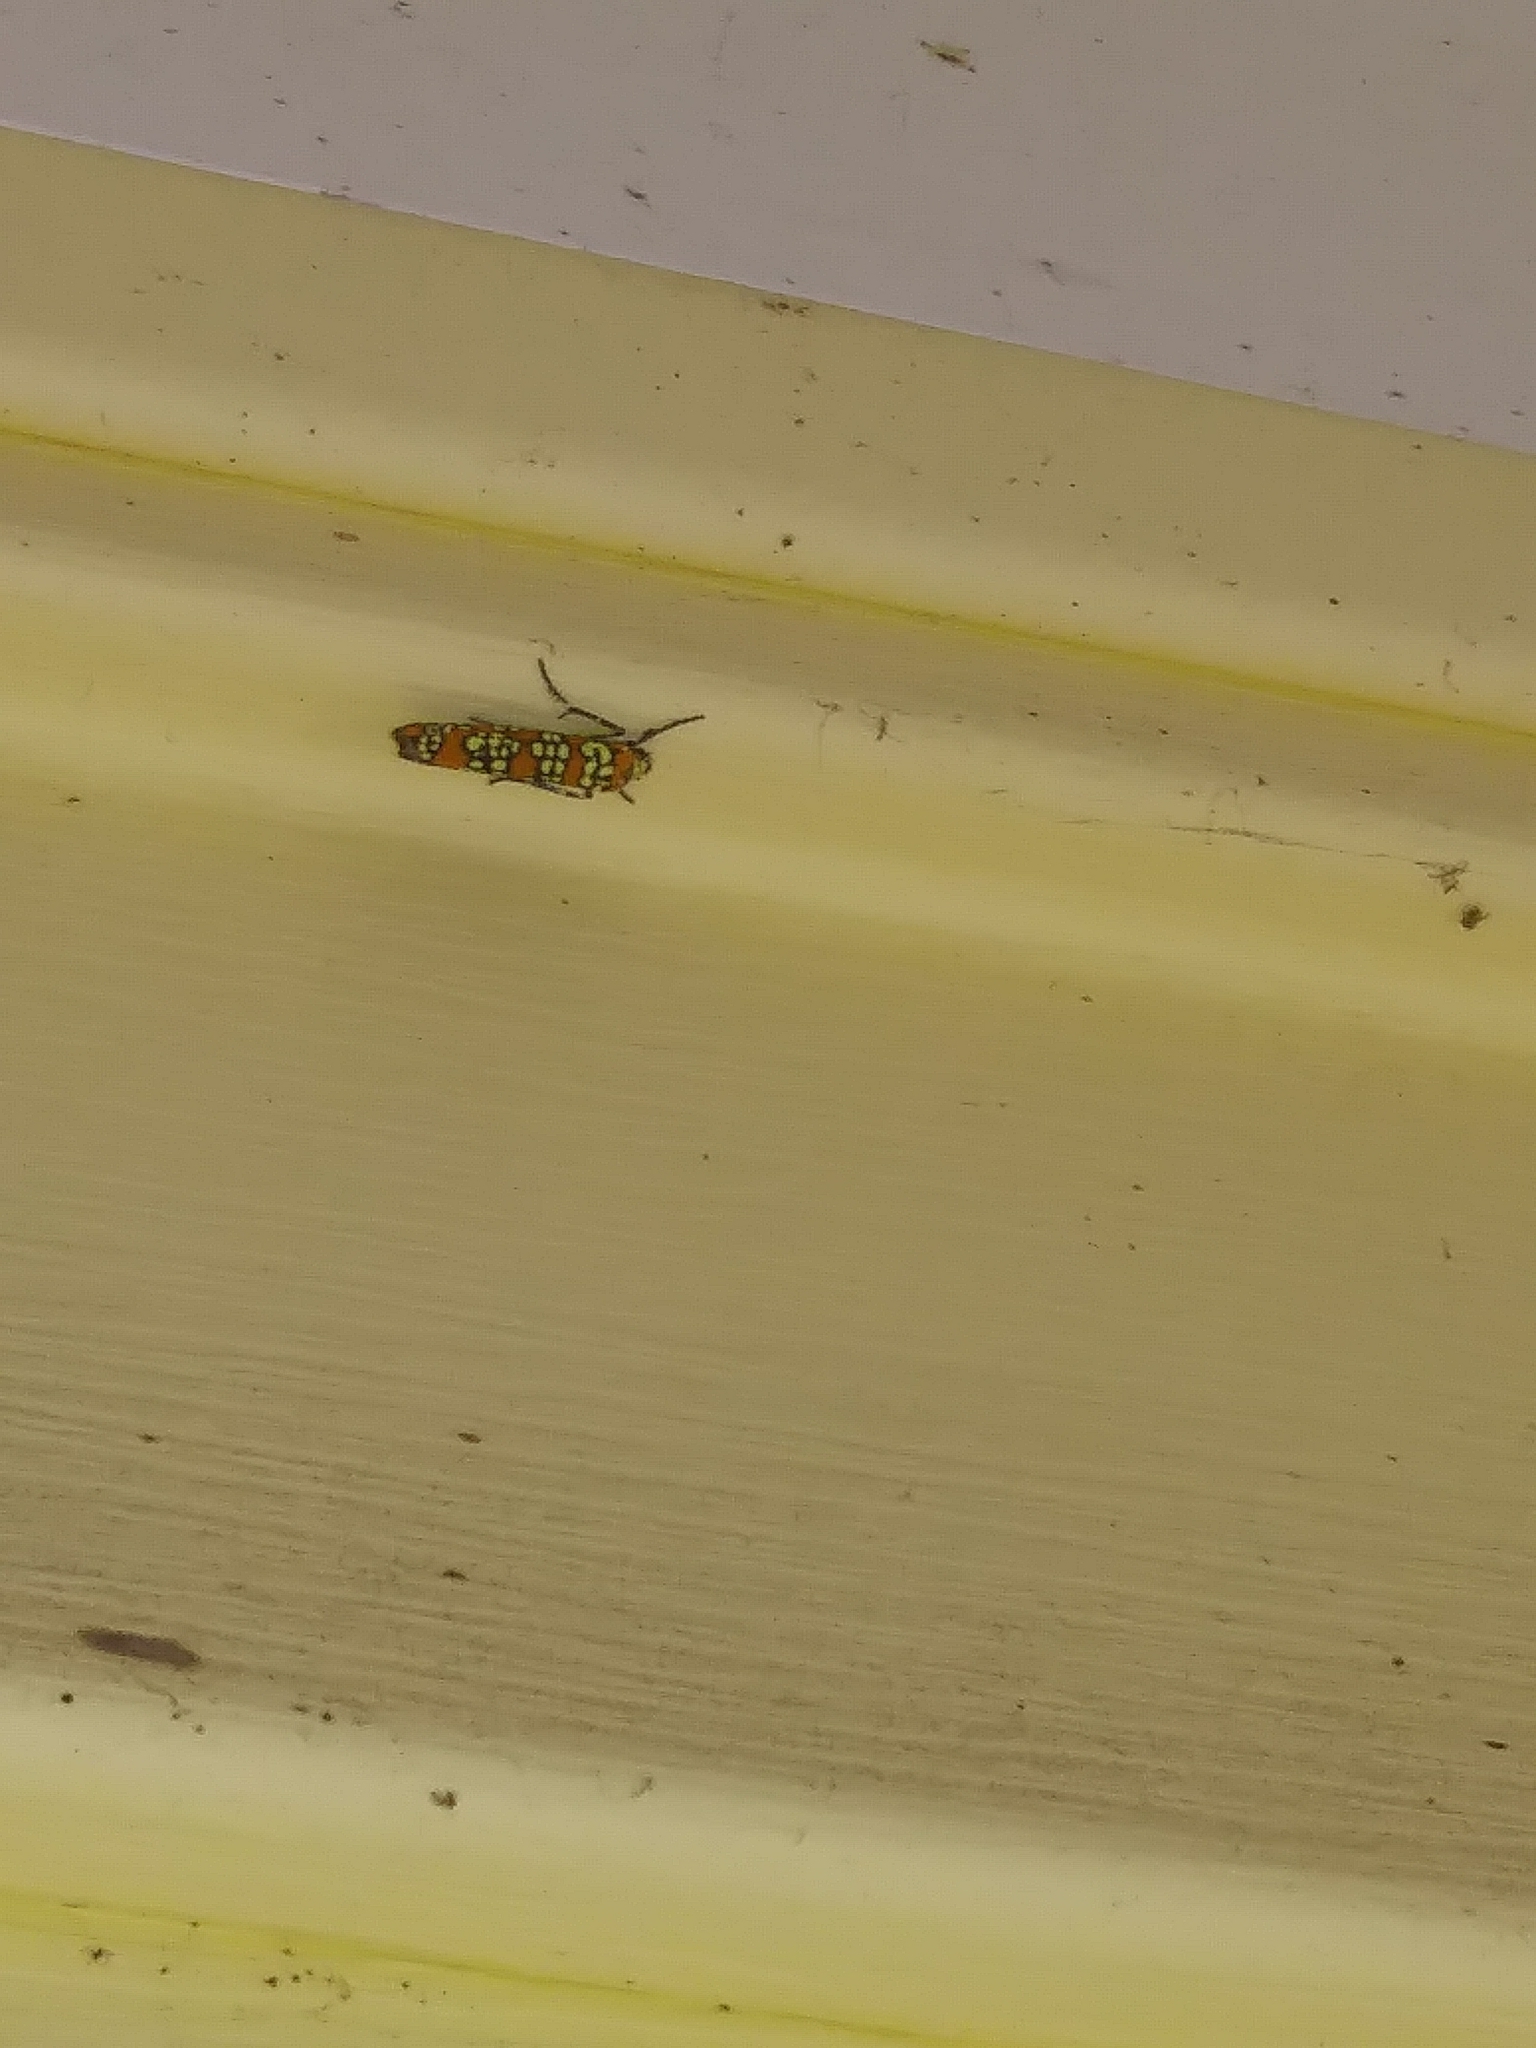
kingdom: Animalia
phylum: Arthropoda
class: Insecta
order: Lepidoptera
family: Attevidae
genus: Atteva
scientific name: Atteva punctella
